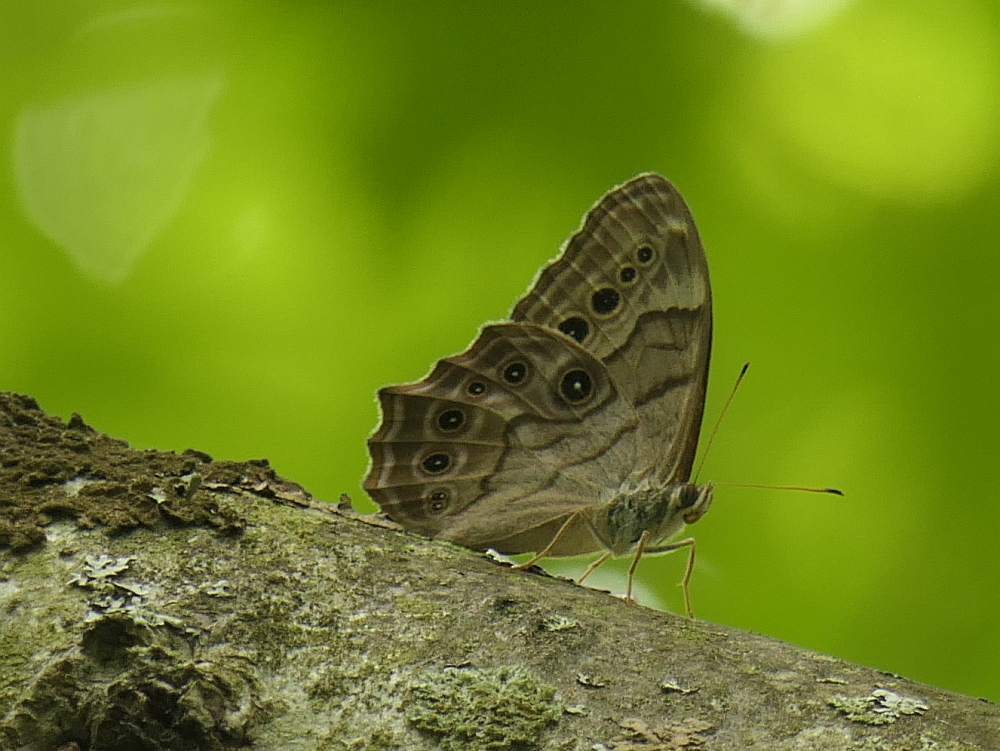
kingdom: Animalia
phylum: Arthropoda
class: Insecta
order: Lepidoptera
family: Nymphalidae
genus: Lethe
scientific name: Lethe anthedon
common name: Northern pearly-eye
